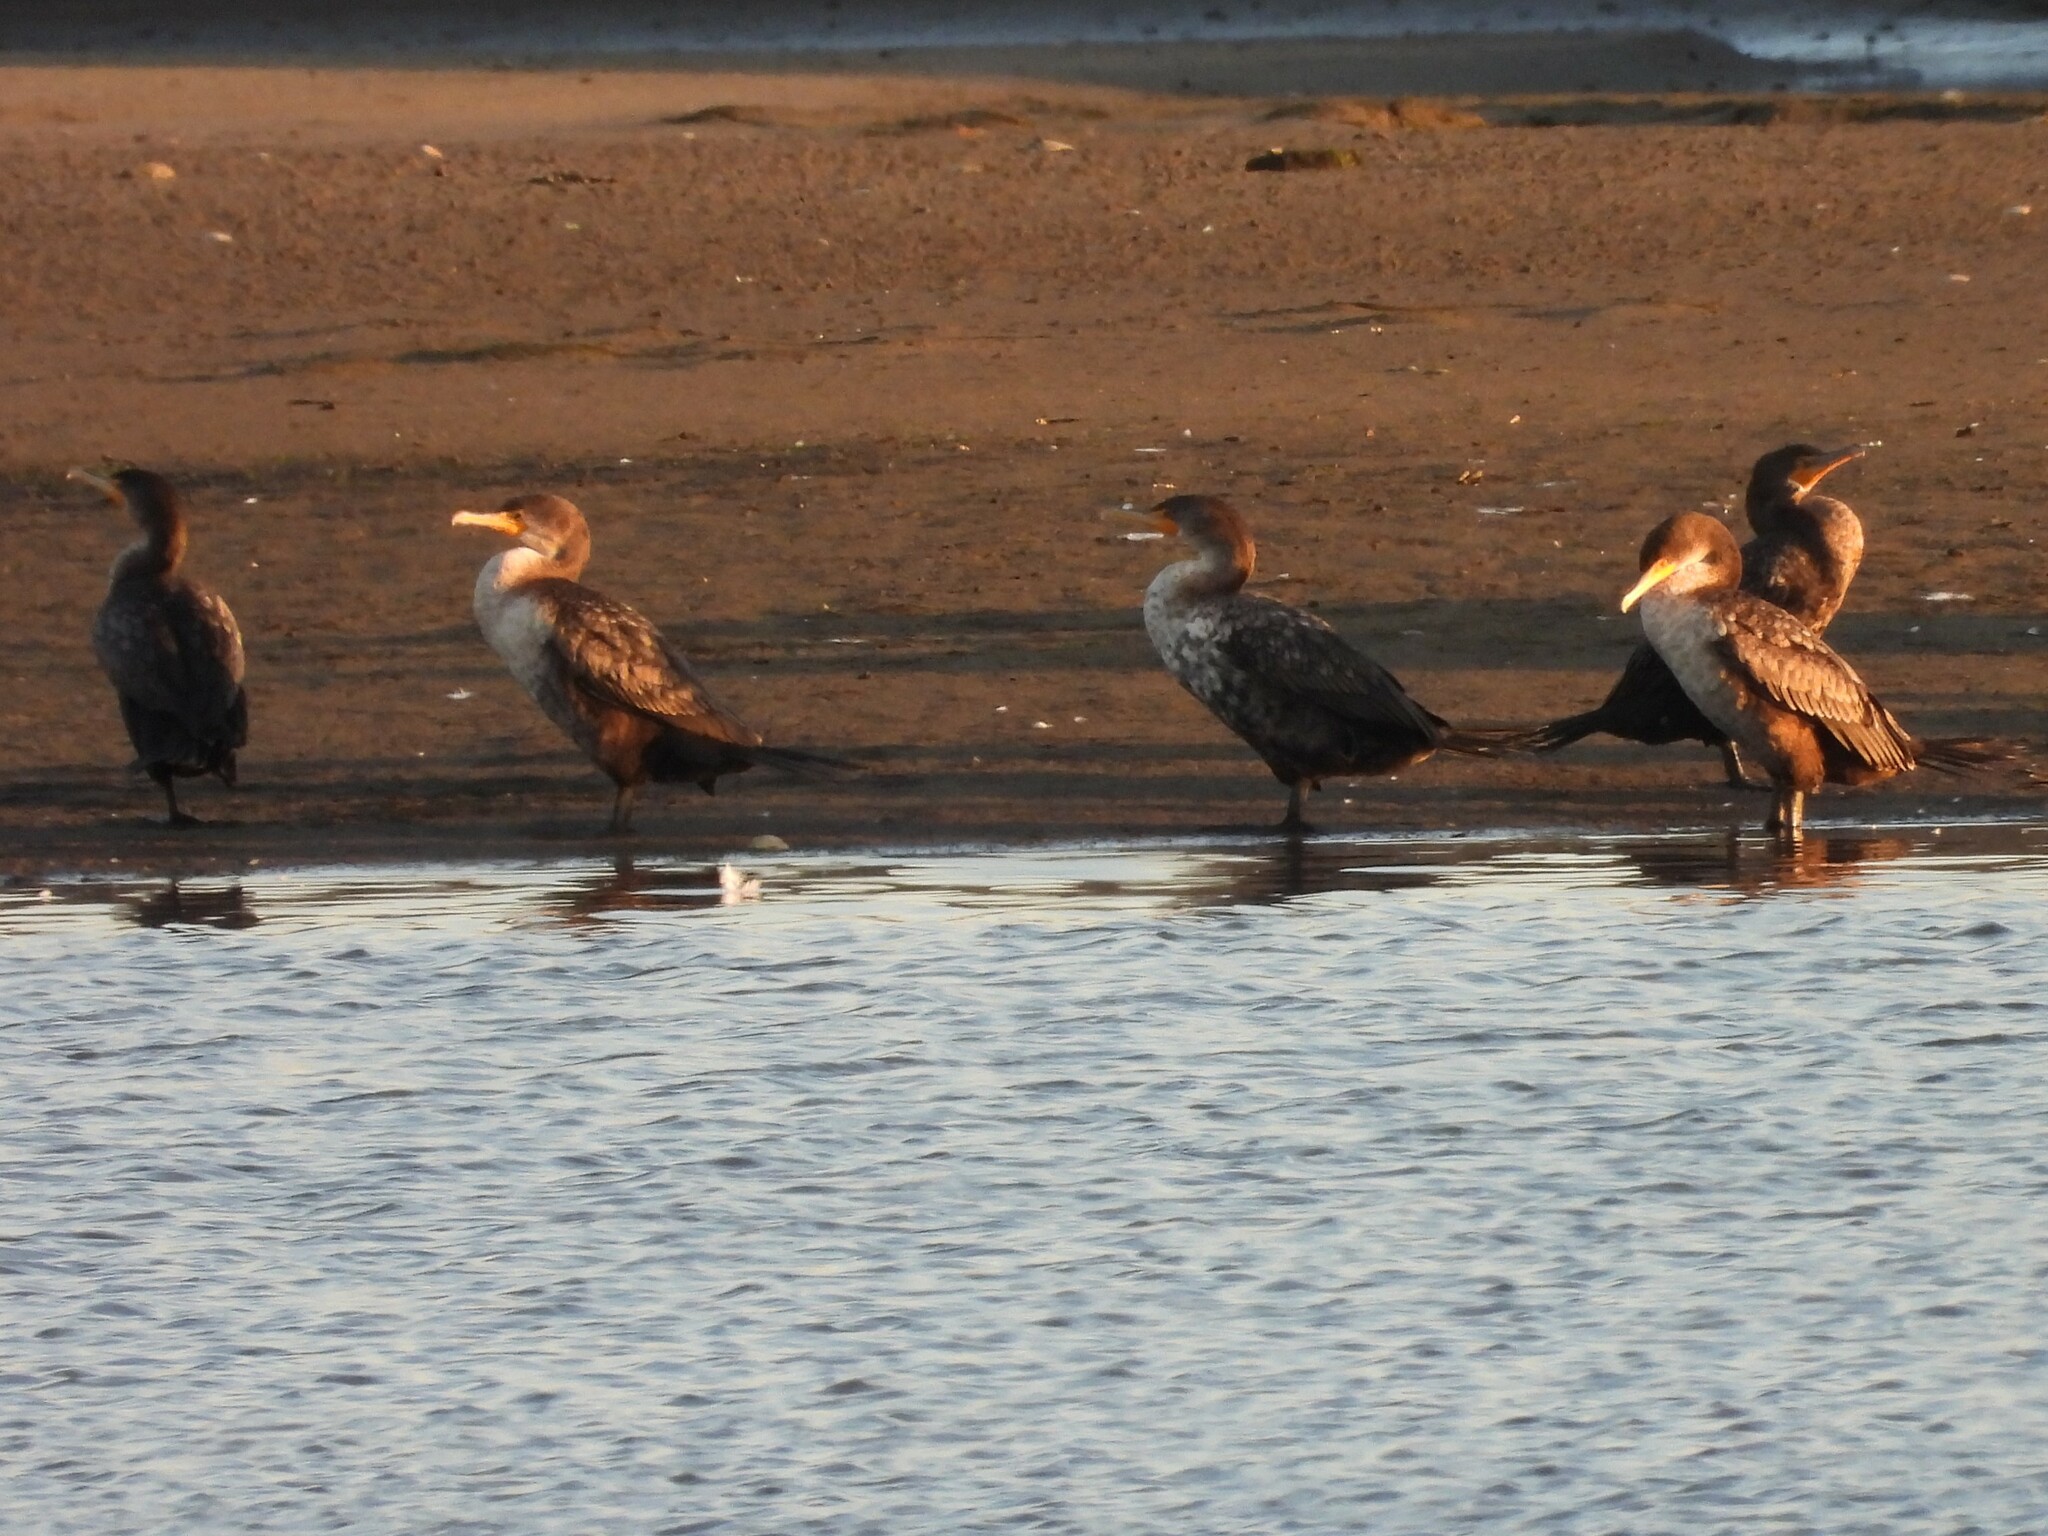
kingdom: Animalia
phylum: Chordata
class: Aves
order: Suliformes
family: Phalacrocoracidae
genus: Phalacrocorax
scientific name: Phalacrocorax auritus
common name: Double-crested cormorant
